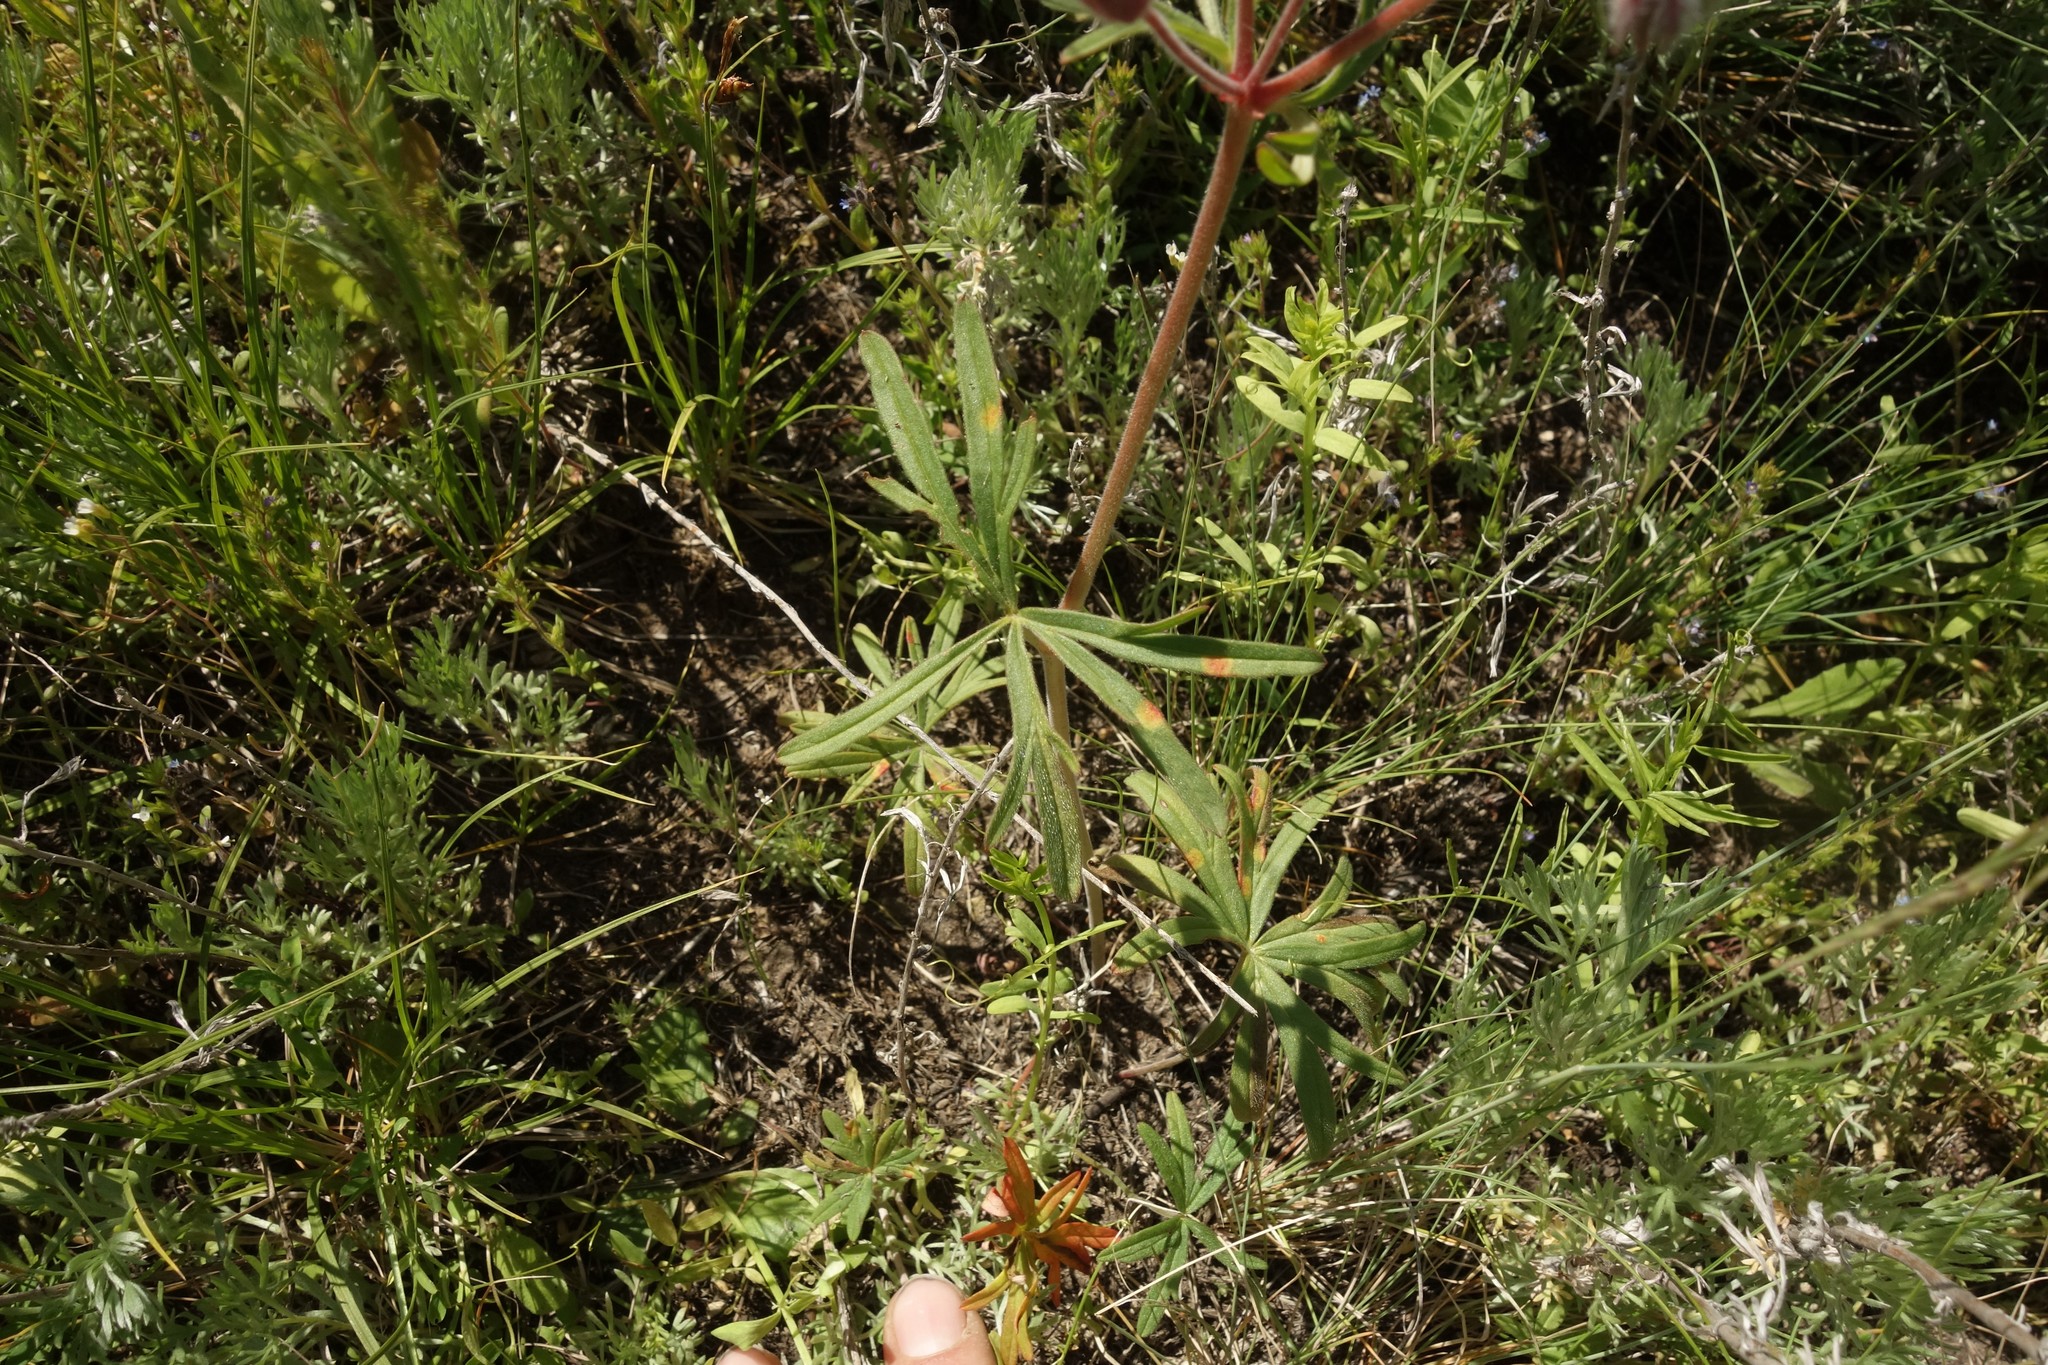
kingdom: Plantae
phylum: Tracheophyta
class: Magnoliopsida
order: Geraniales
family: Geraniaceae
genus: Geranium
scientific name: Geranium linearilobum
